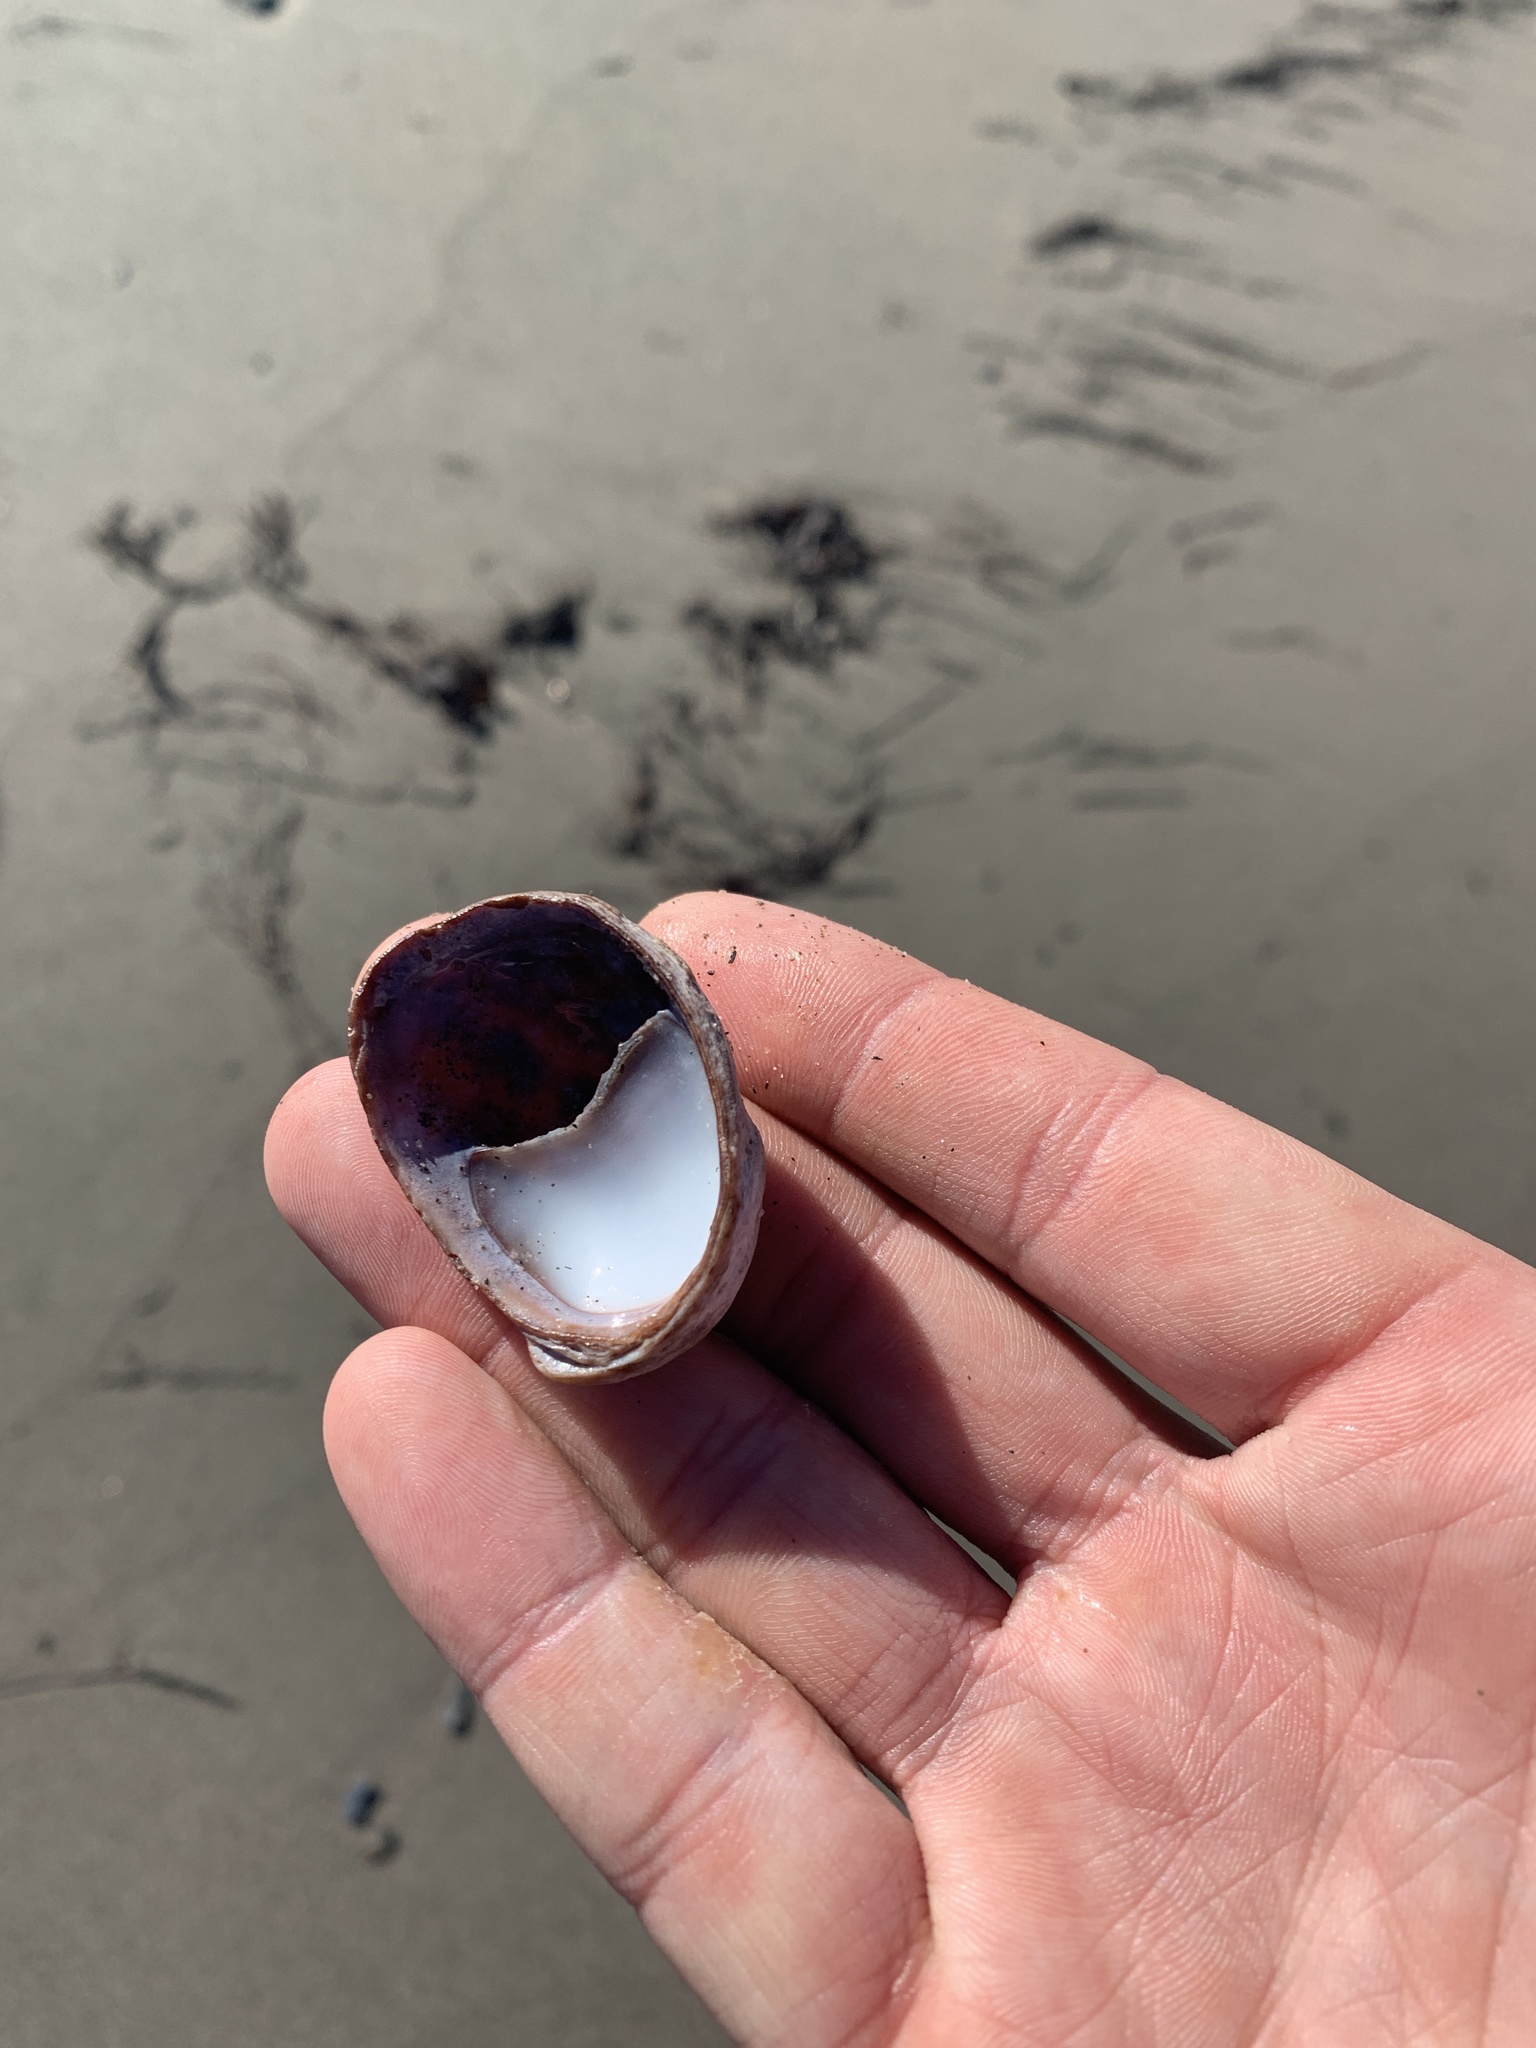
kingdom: Animalia
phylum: Mollusca
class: Gastropoda
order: Littorinimorpha
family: Calyptraeidae
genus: Crepidula
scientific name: Crepidula fornicata
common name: Slipper limpet
